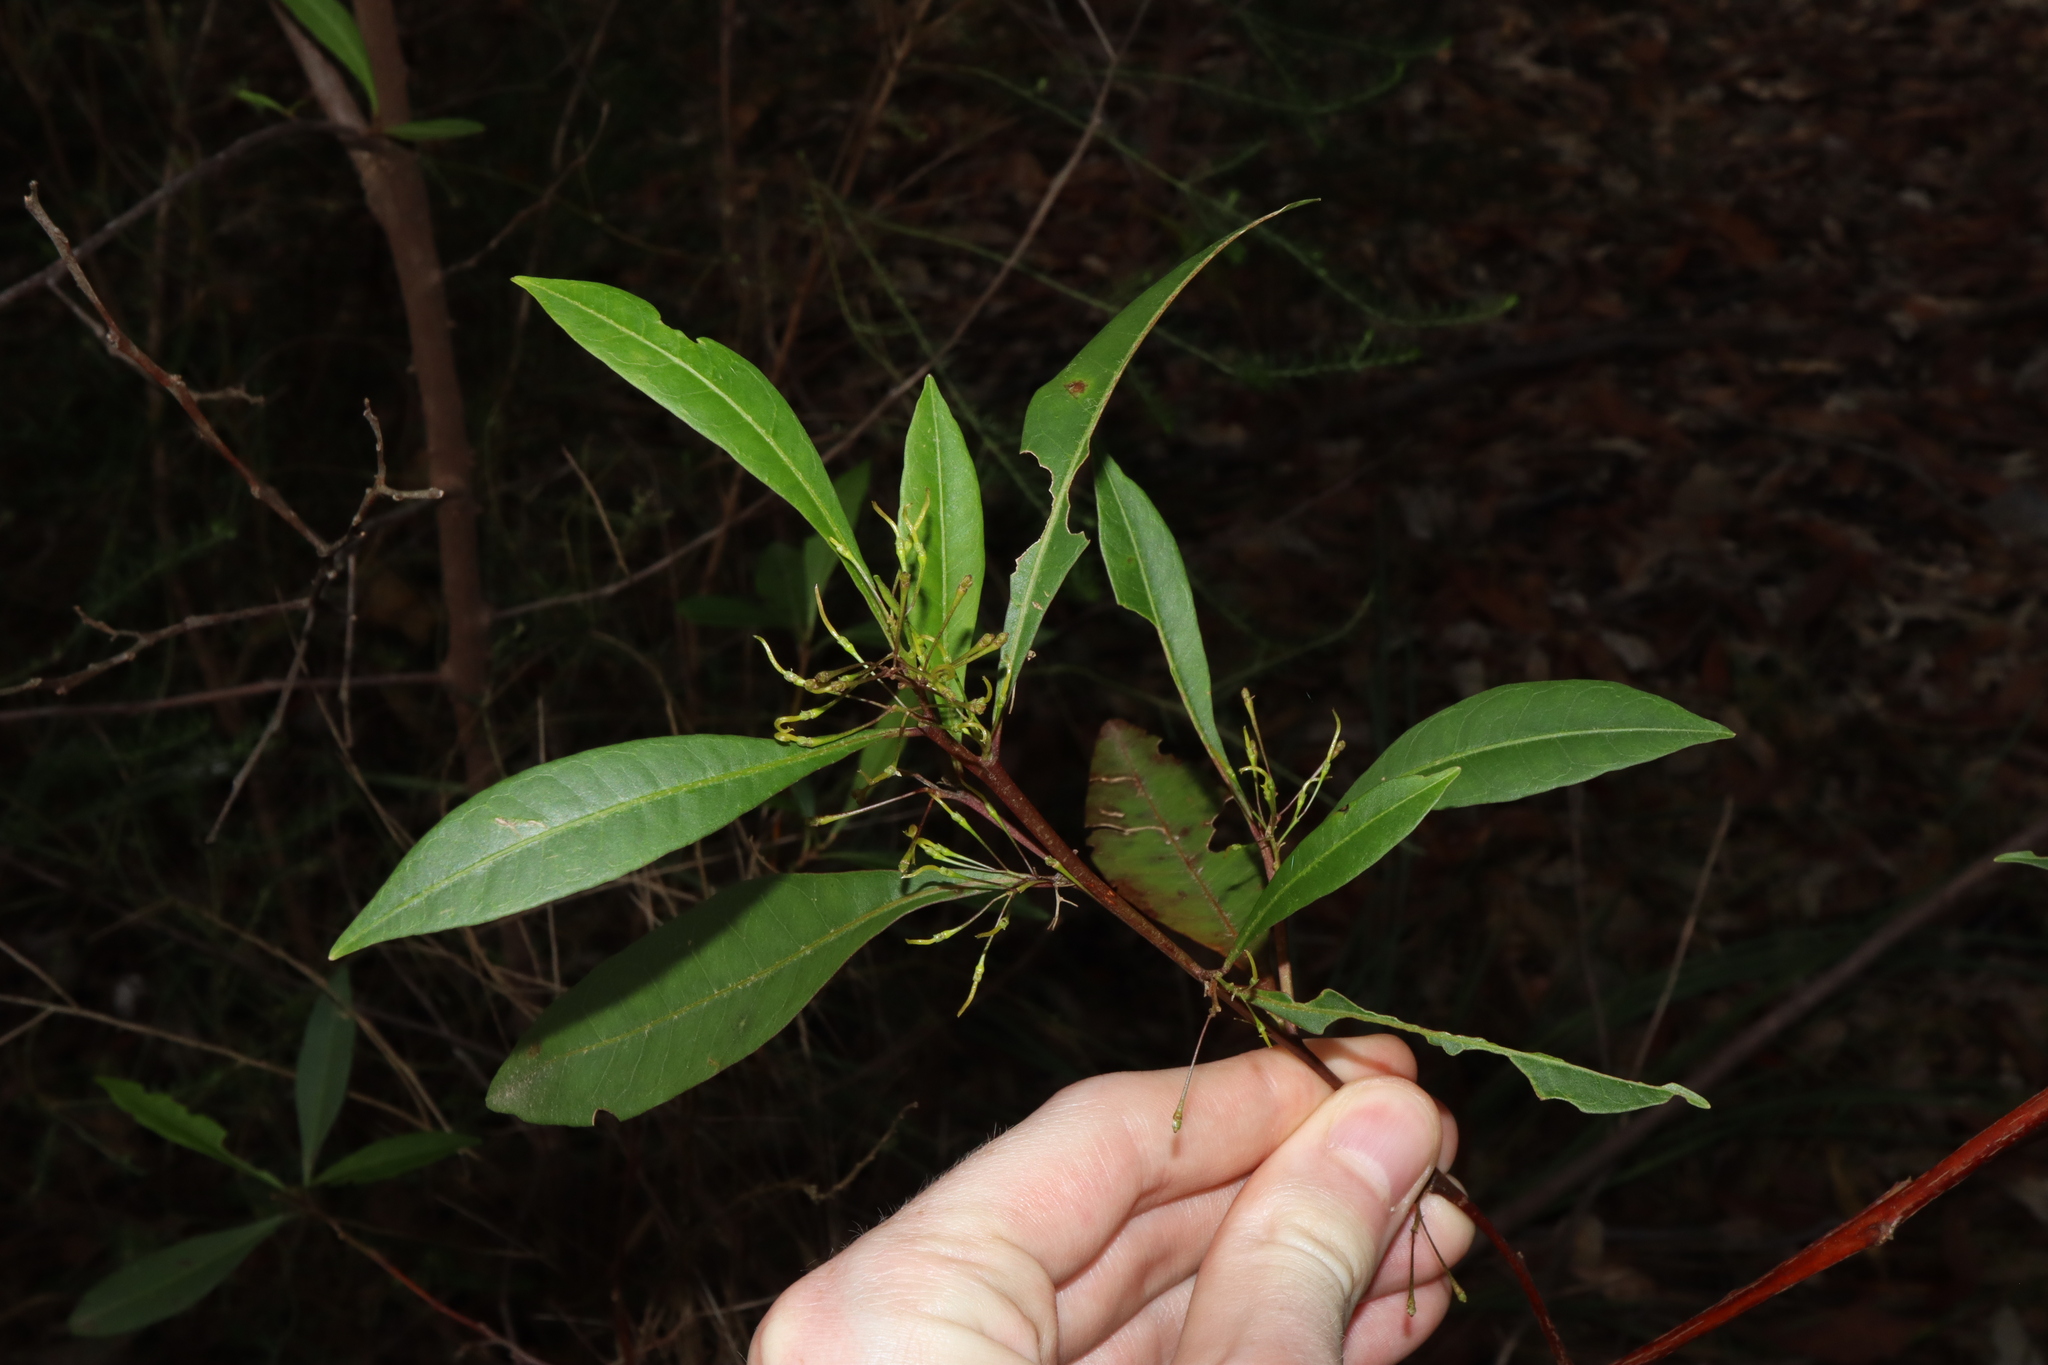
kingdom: Plantae
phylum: Tracheophyta
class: Magnoliopsida
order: Sapindales
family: Sapindaceae
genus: Dodonaea
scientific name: Dodonaea triquetra
